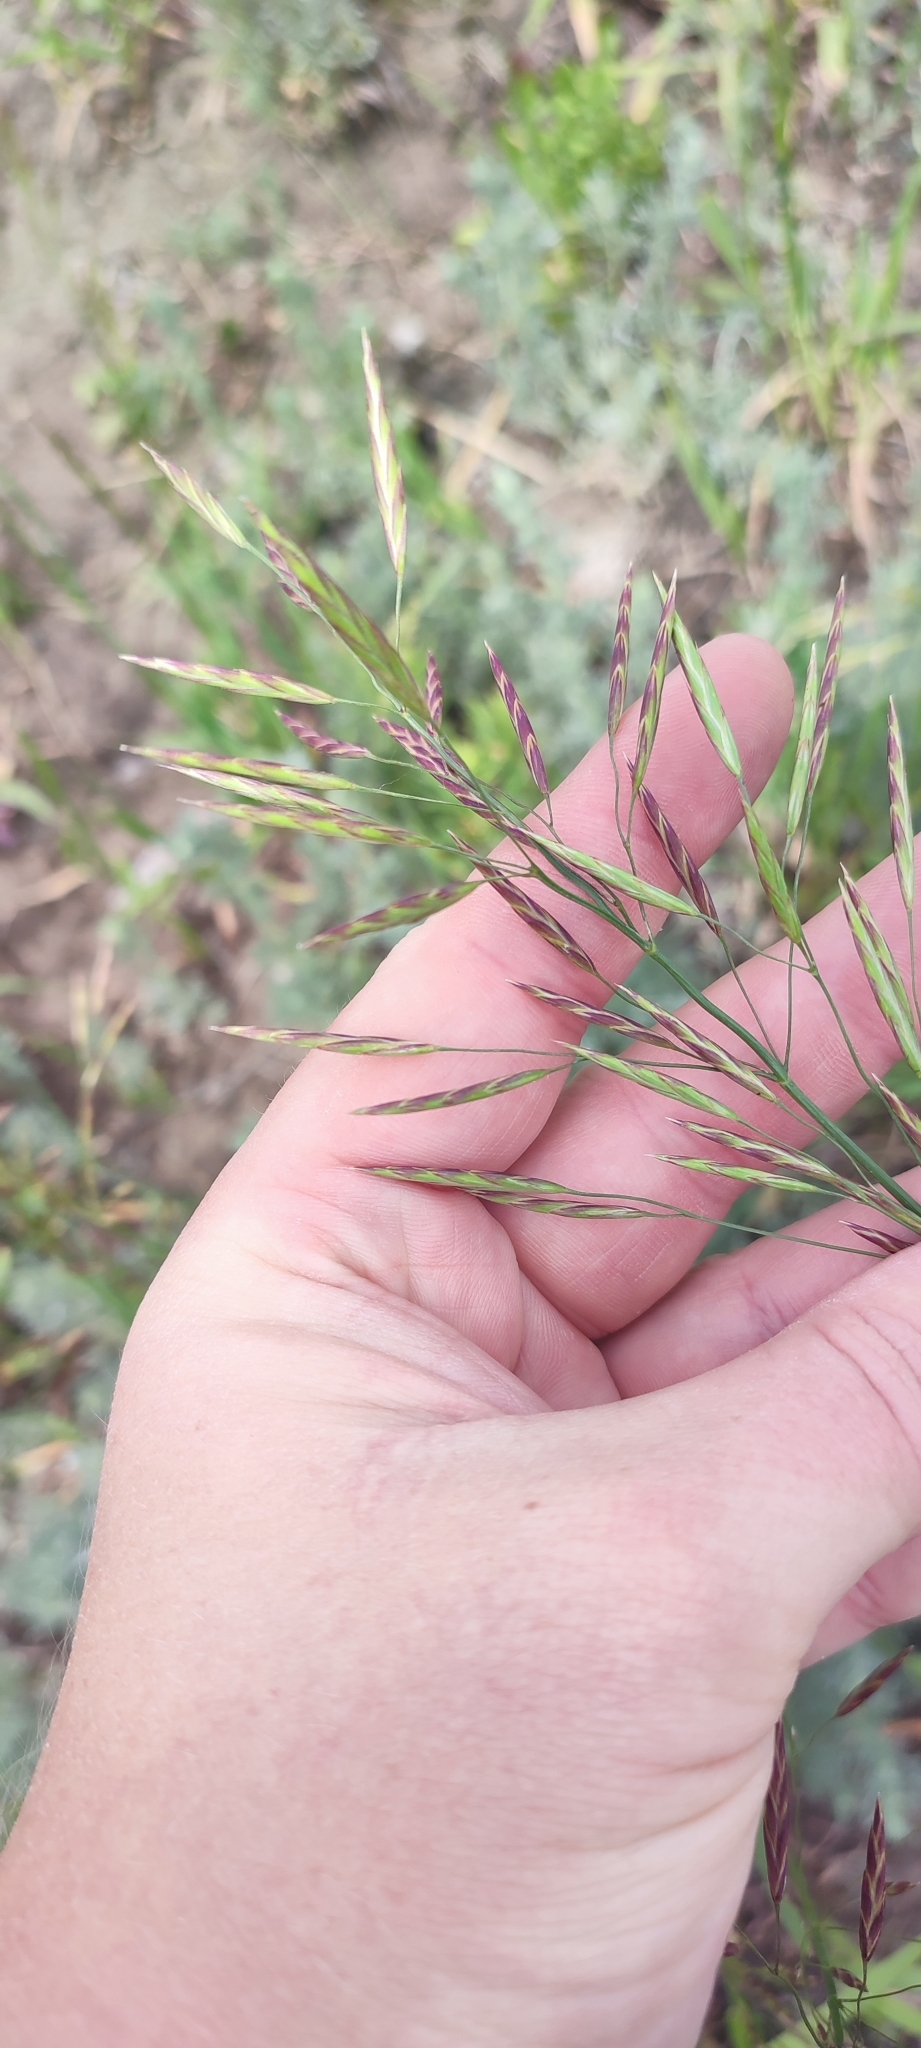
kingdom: Plantae
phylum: Tracheophyta
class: Liliopsida
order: Poales
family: Poaceae
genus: Bromus
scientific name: Bromus inermis
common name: Smooth brome
